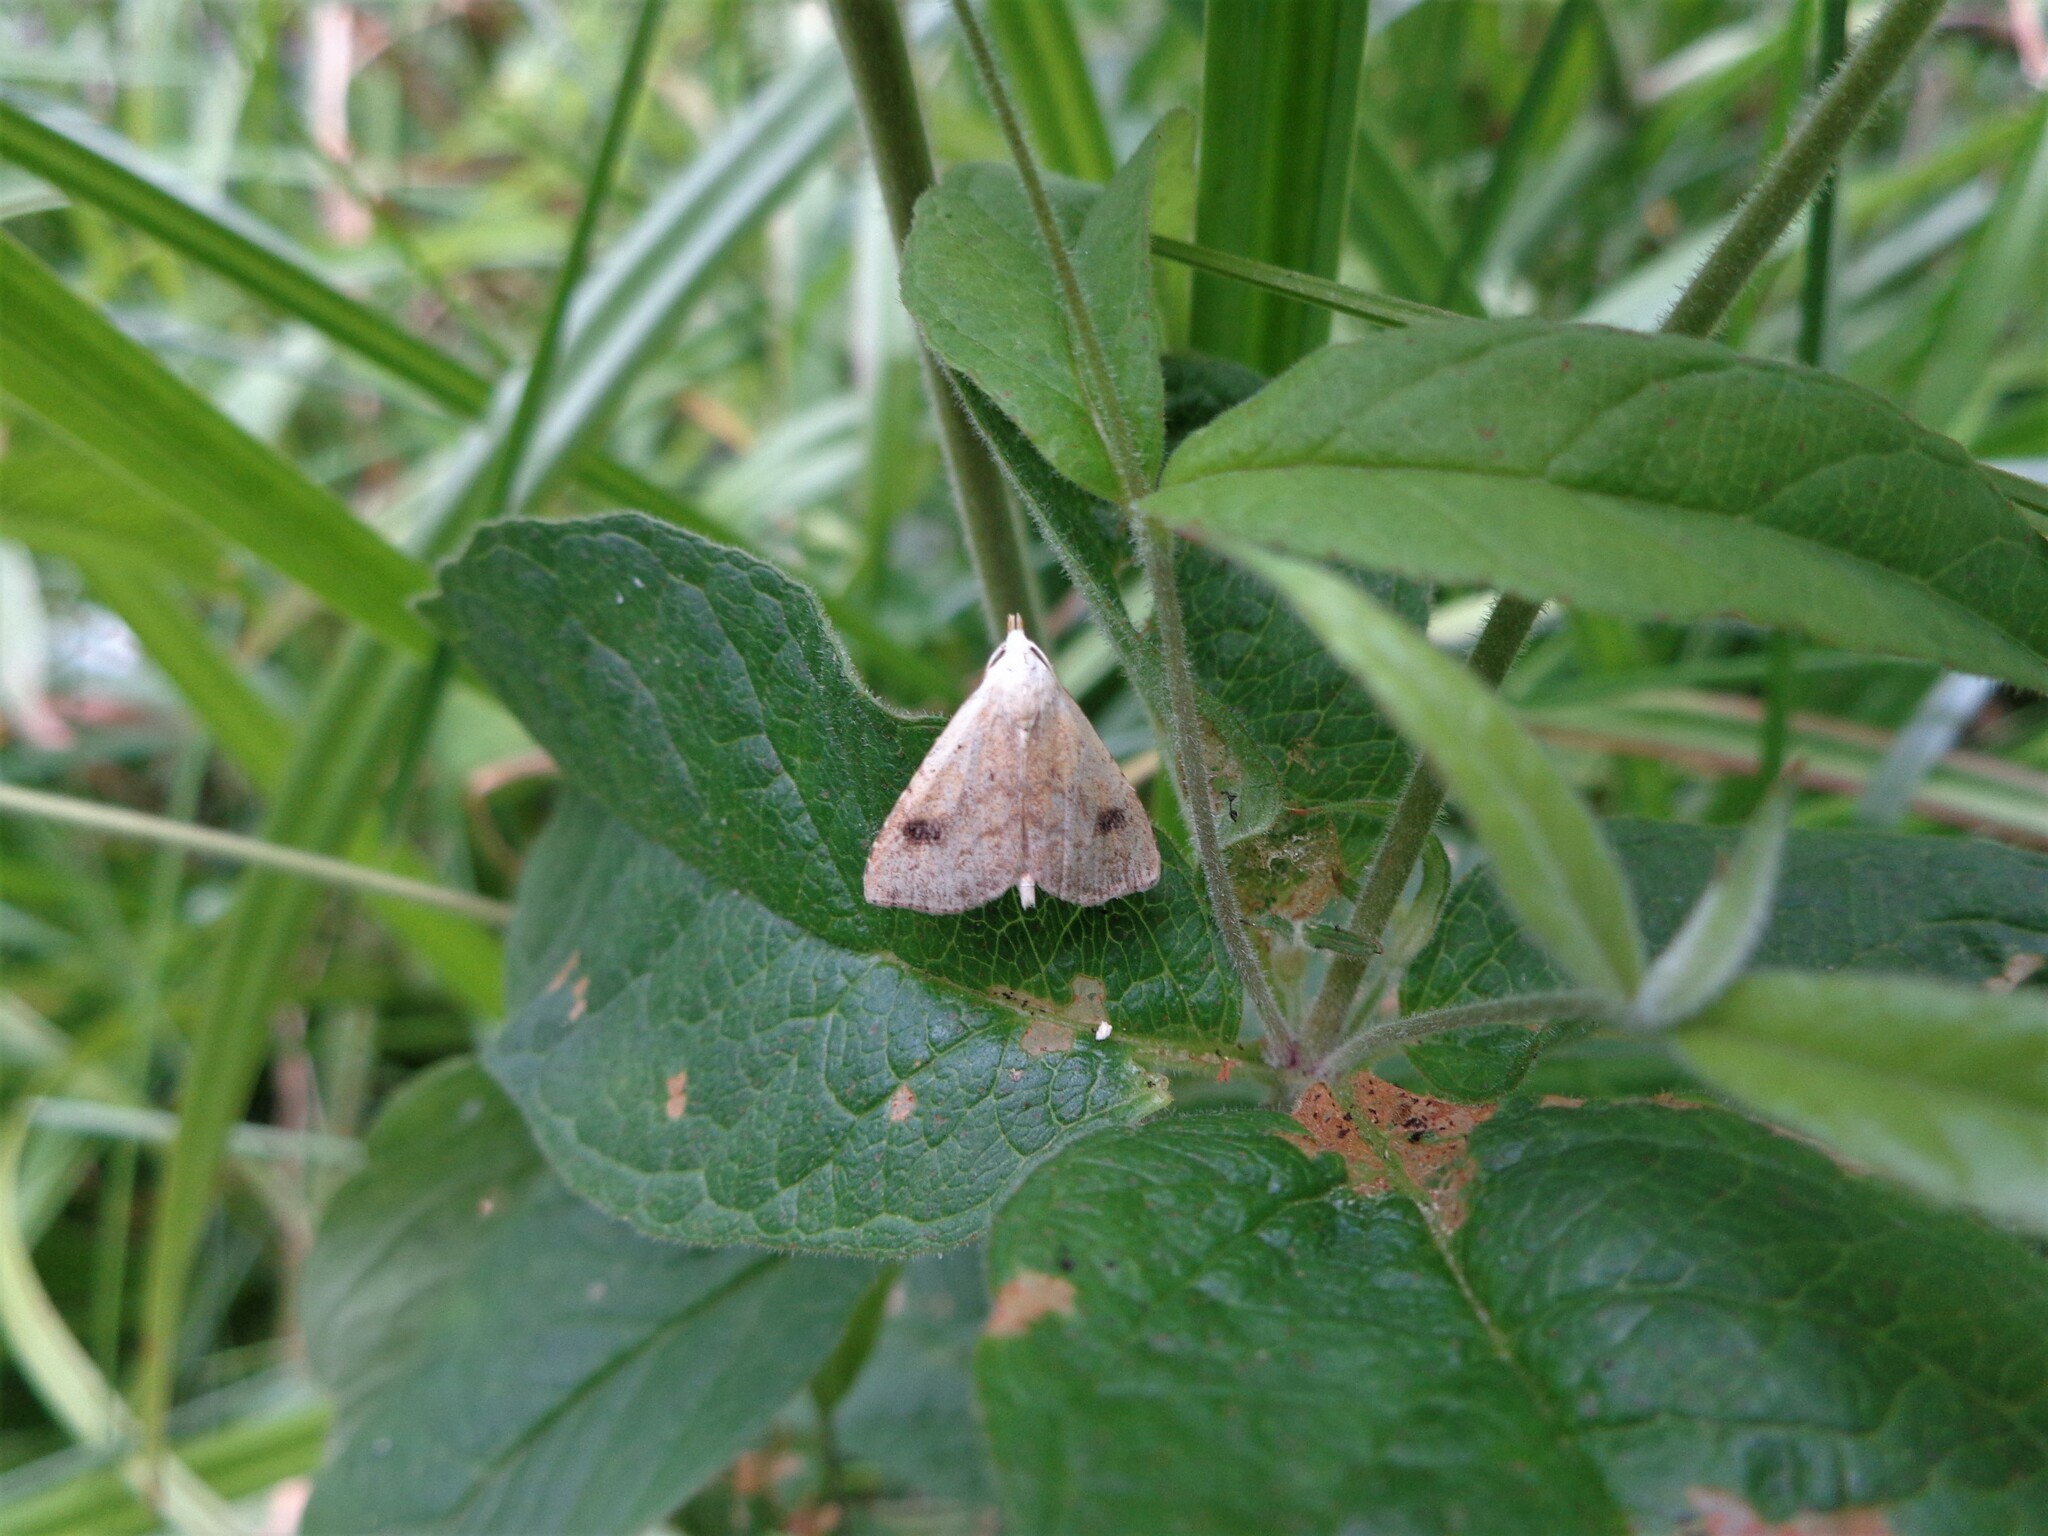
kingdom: Animalia
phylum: Arthropoda
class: Insecta
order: Lepidoptera
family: Erebidae
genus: Rivula
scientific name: Rivula sericealis
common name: Straw dot
